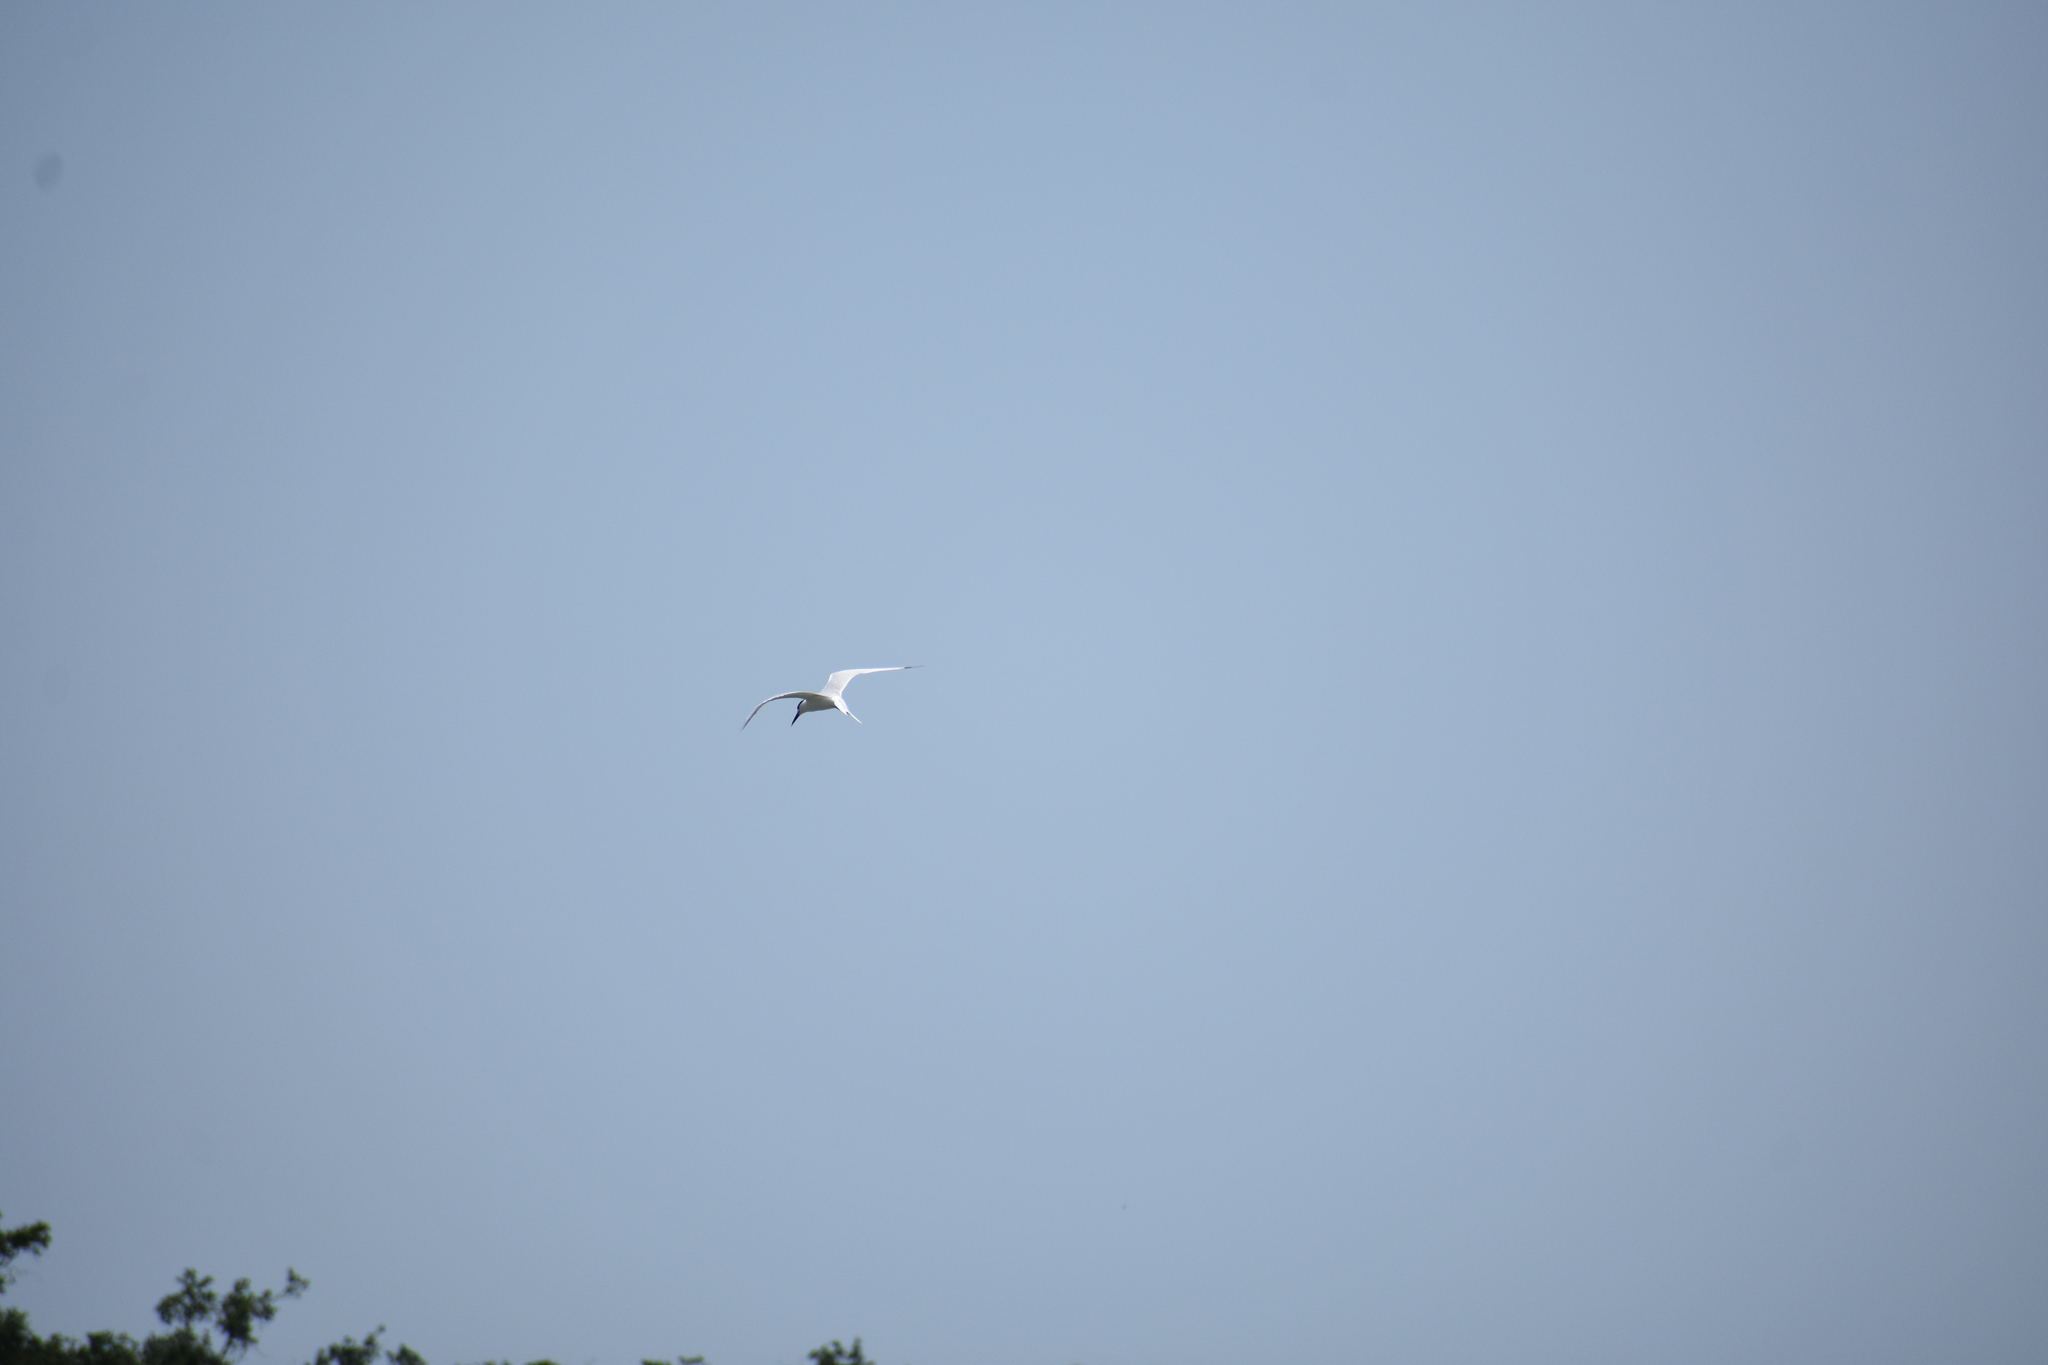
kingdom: Animalia
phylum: Chordata
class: Aves
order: Charadriiformes
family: Laridae
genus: Thalasseus
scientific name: Thalasseus sandvicensis
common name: Sandwich tern
